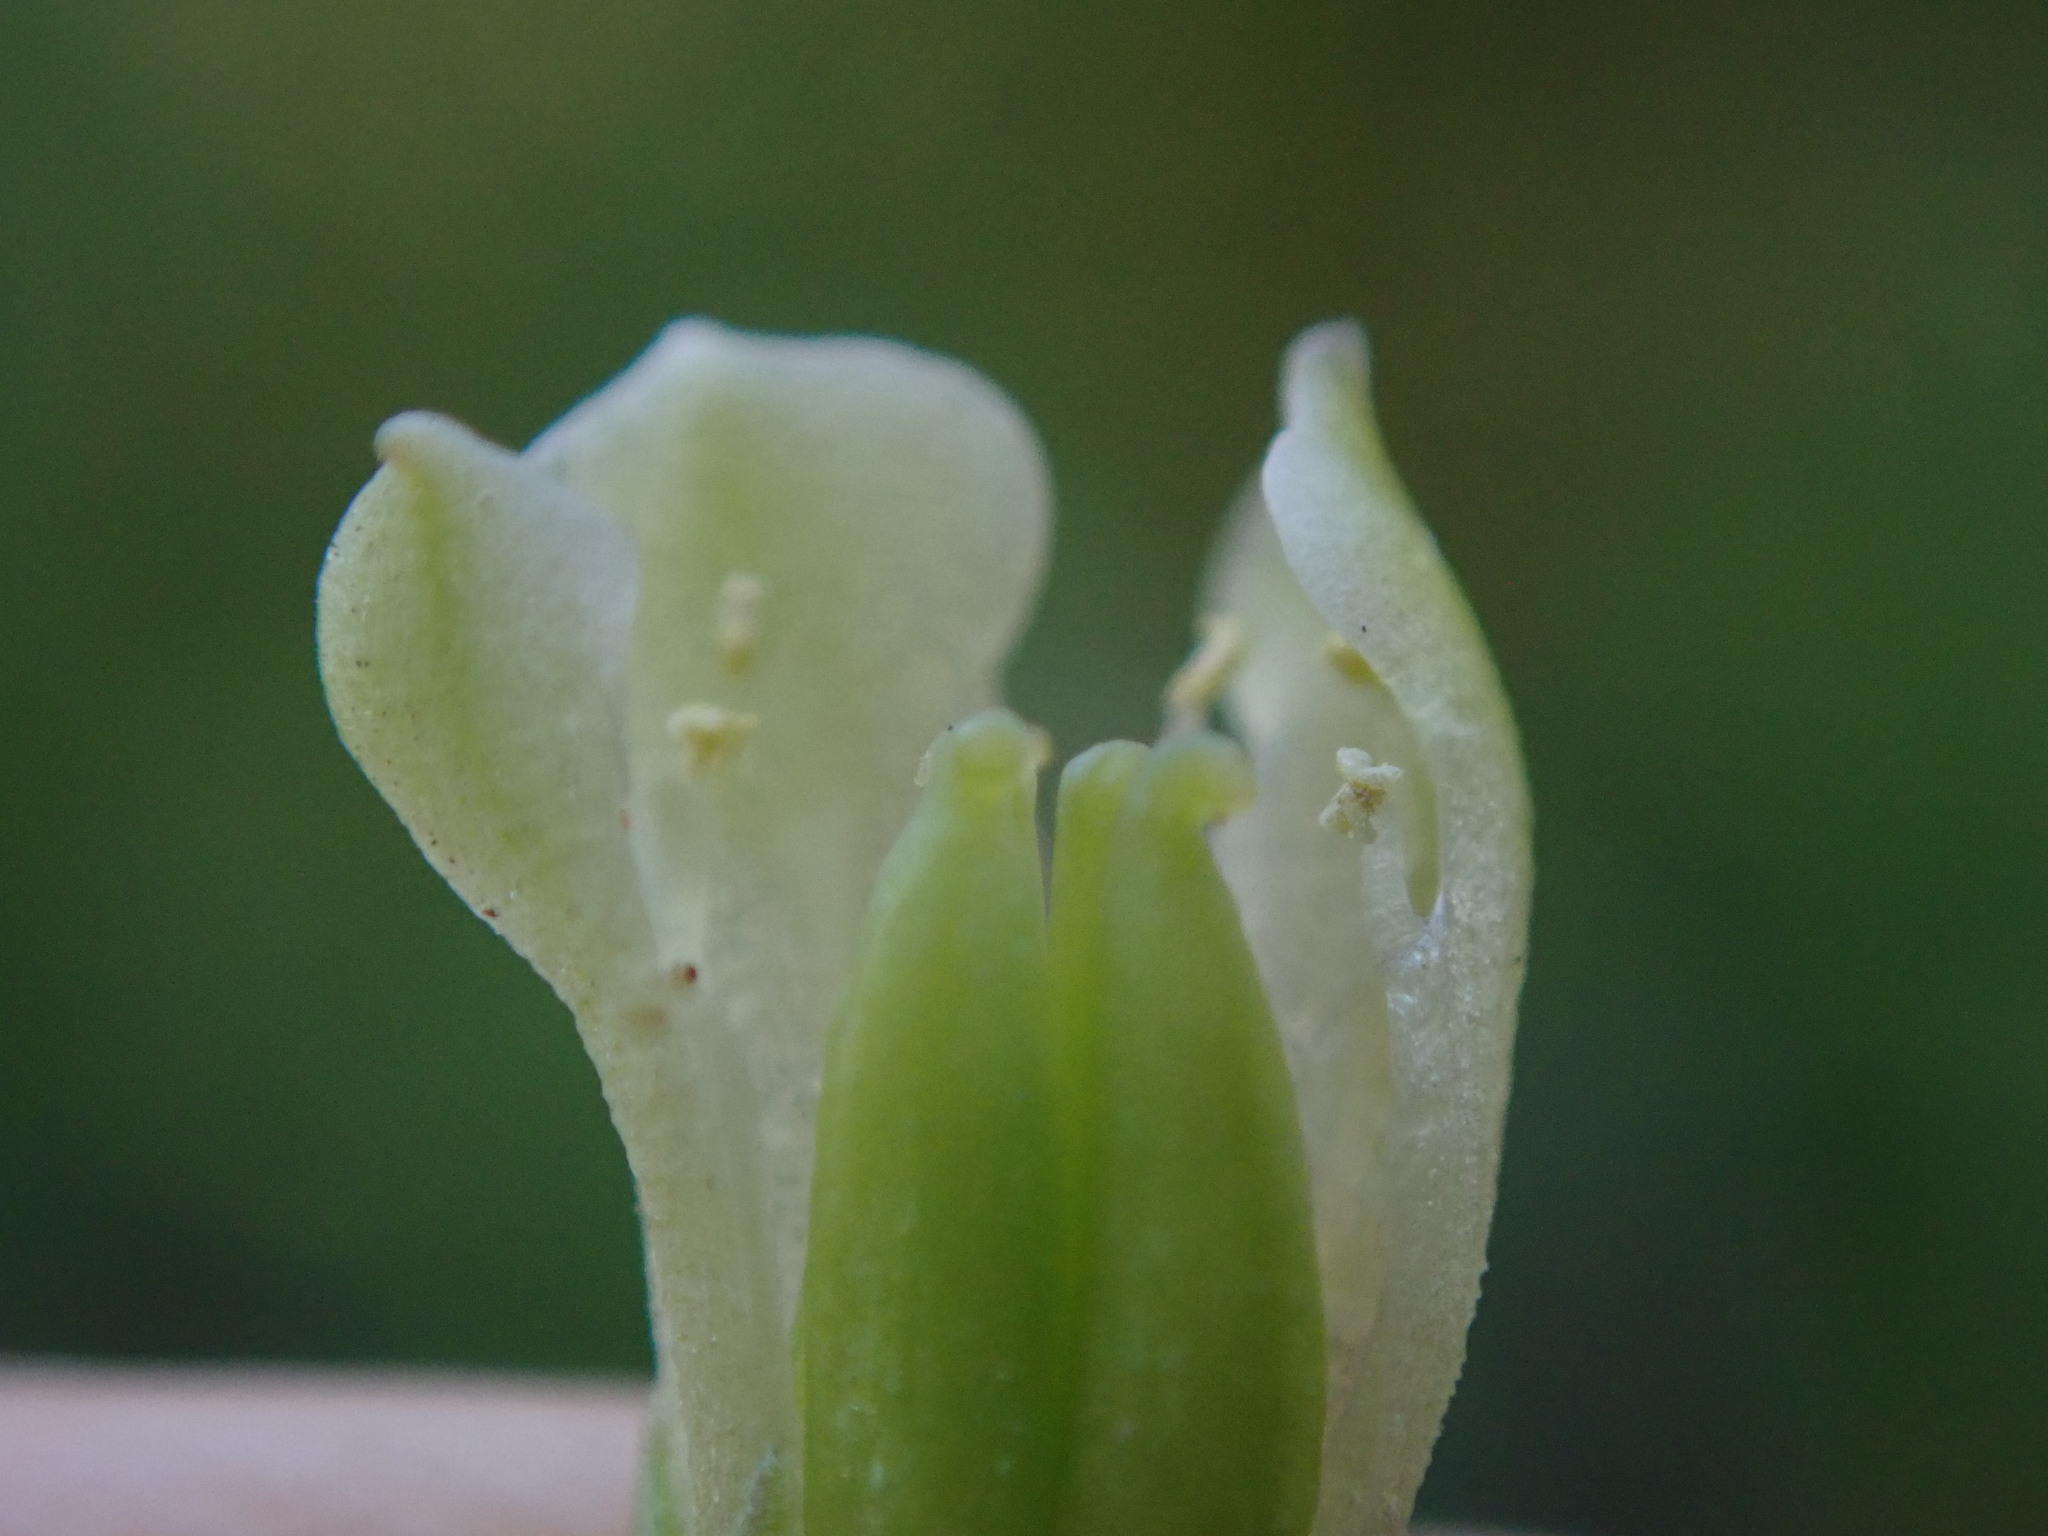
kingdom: Plantae
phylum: Tracheophyta
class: Magnoliopsida
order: Saxifragales
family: Crassulaceae
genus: Umbilicus
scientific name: Umbilicus rupestris
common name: Navelwort
